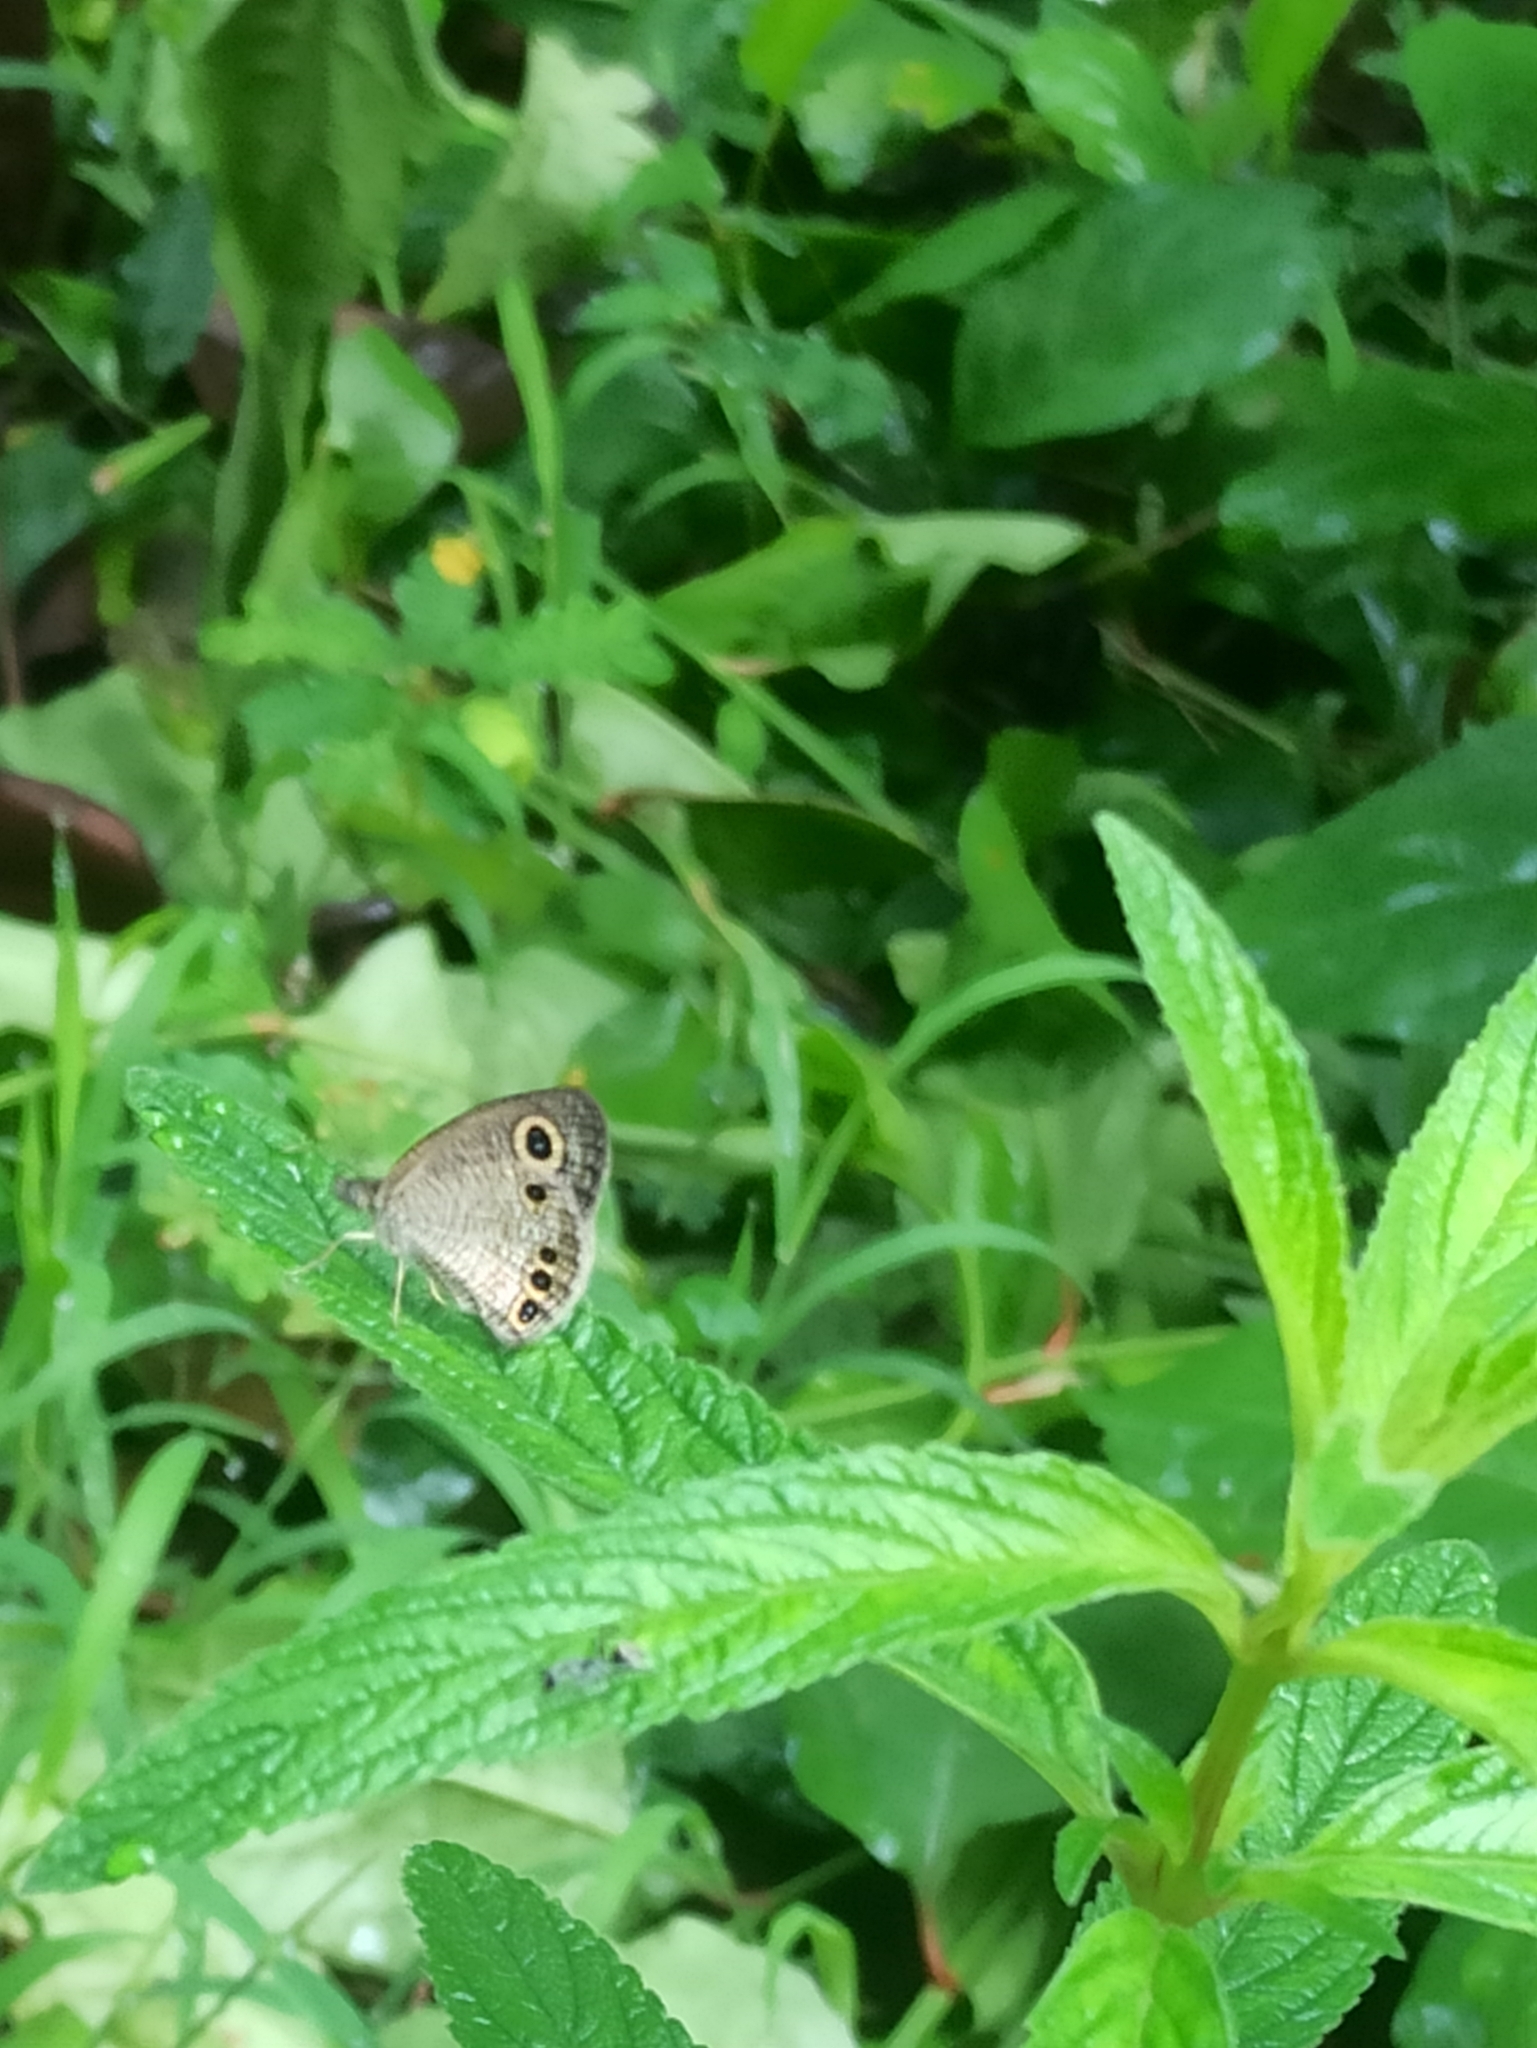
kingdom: Animalia
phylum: Arthropoda
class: Insecta
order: Lepidoptera
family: Nymphalidae
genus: Ypthima
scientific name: Ypthima huebneri
